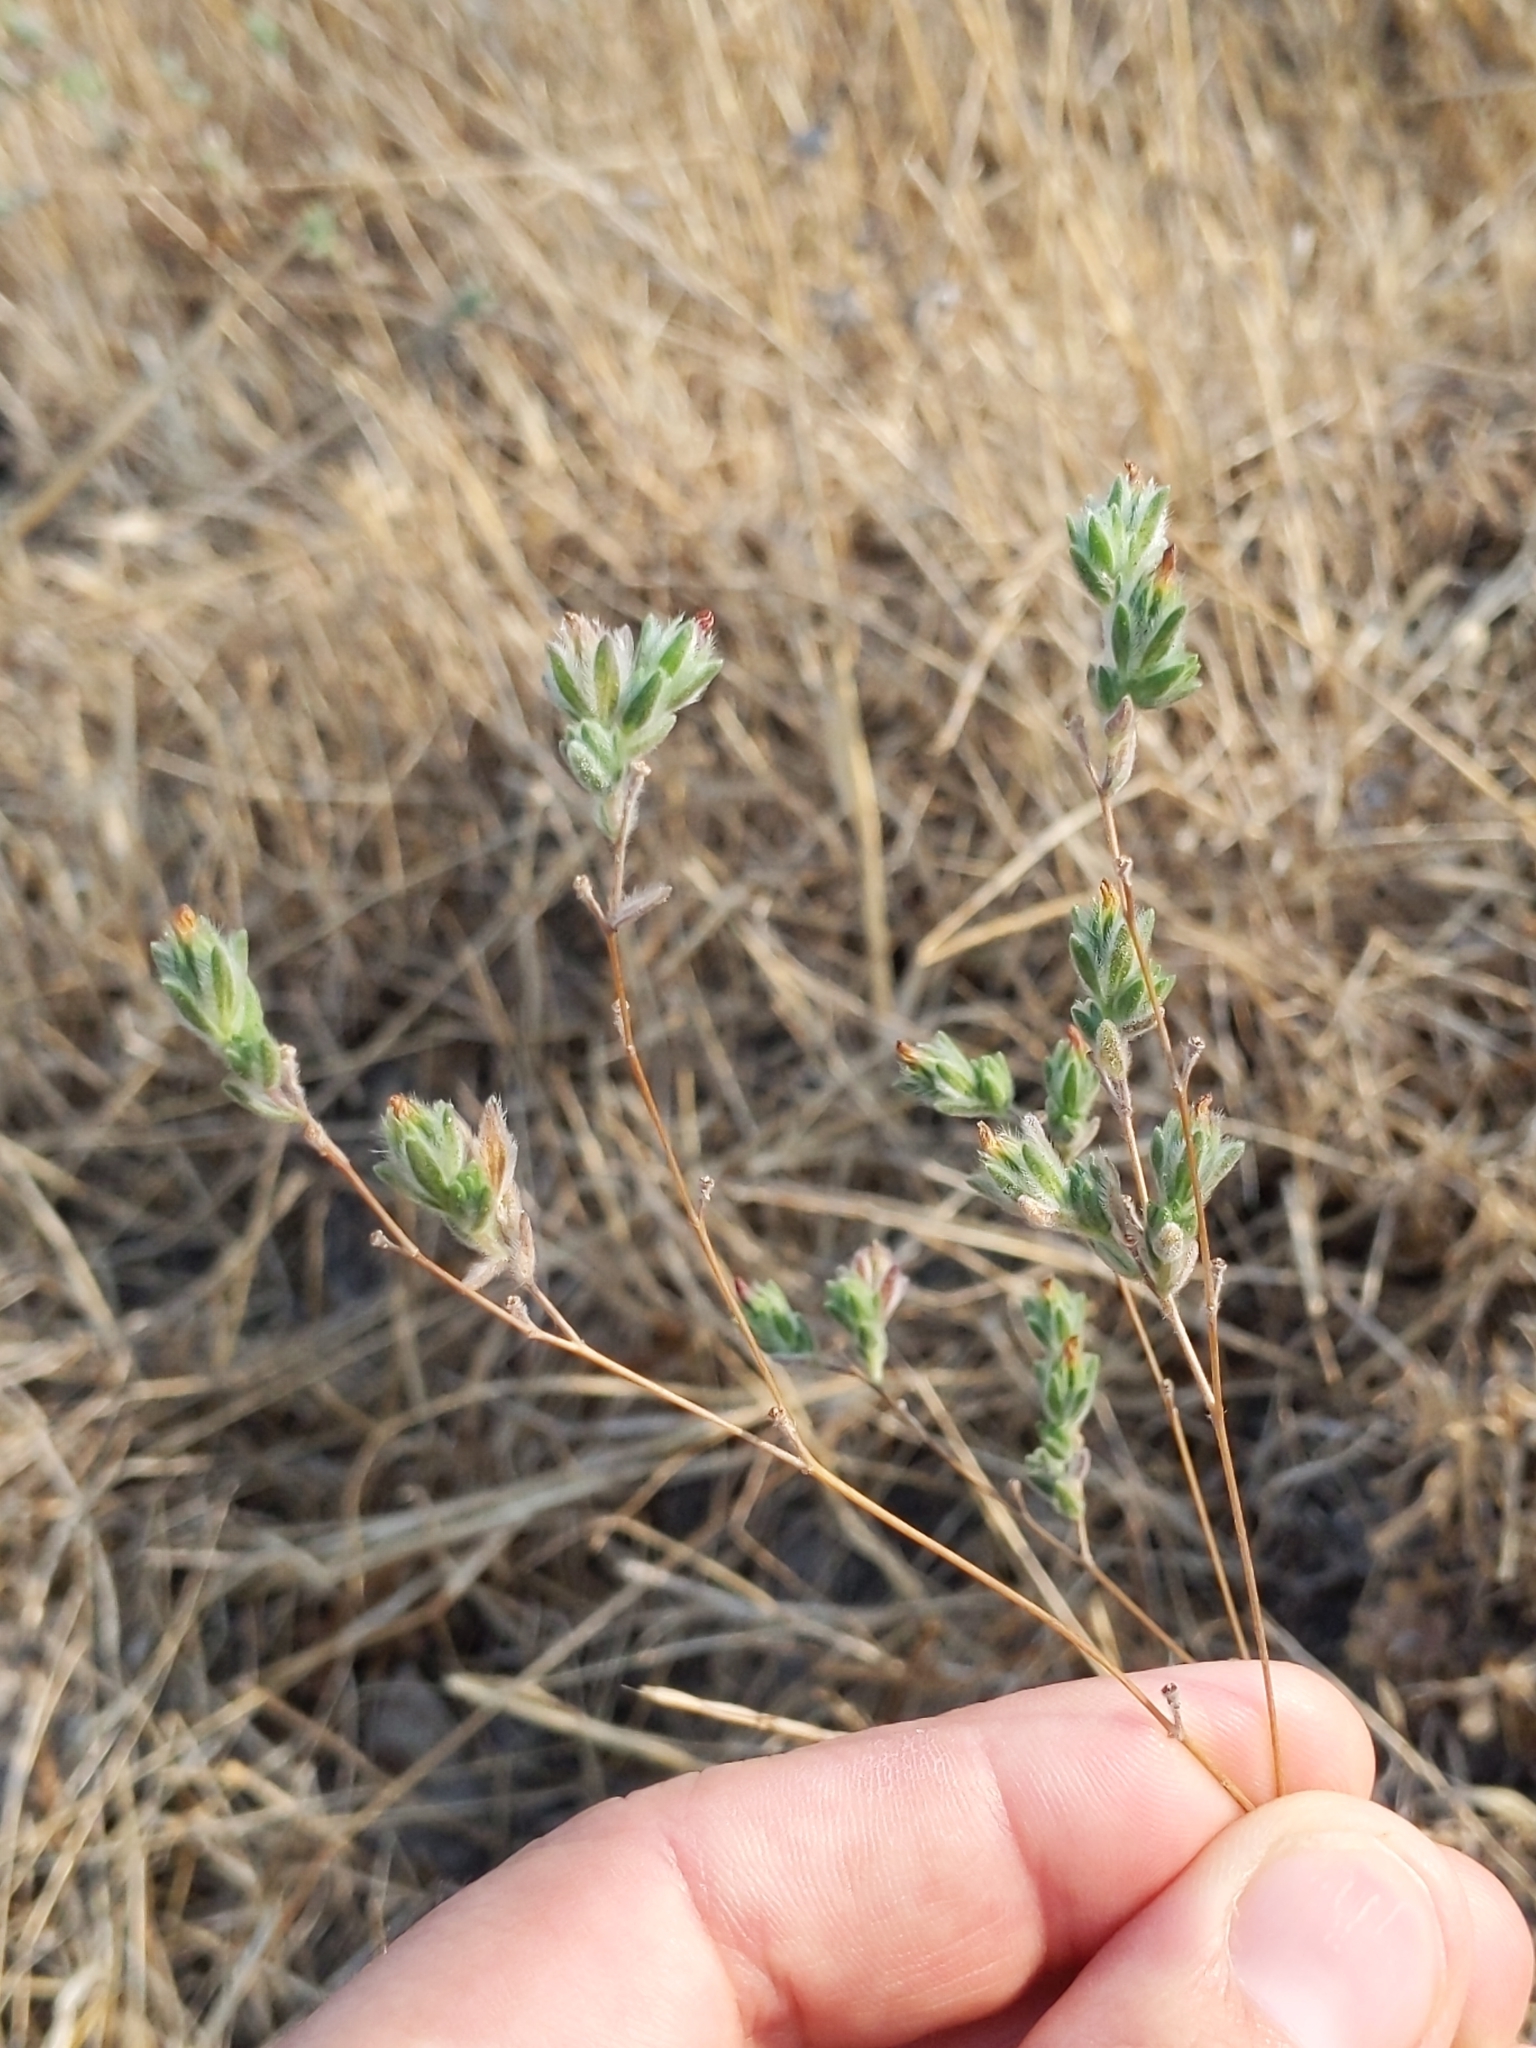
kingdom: Plantae
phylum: Tracheophyta
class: Magnoliopsida
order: Asterales
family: Asteraceae
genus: Lagophylla
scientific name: Lagophylla ramosissima
